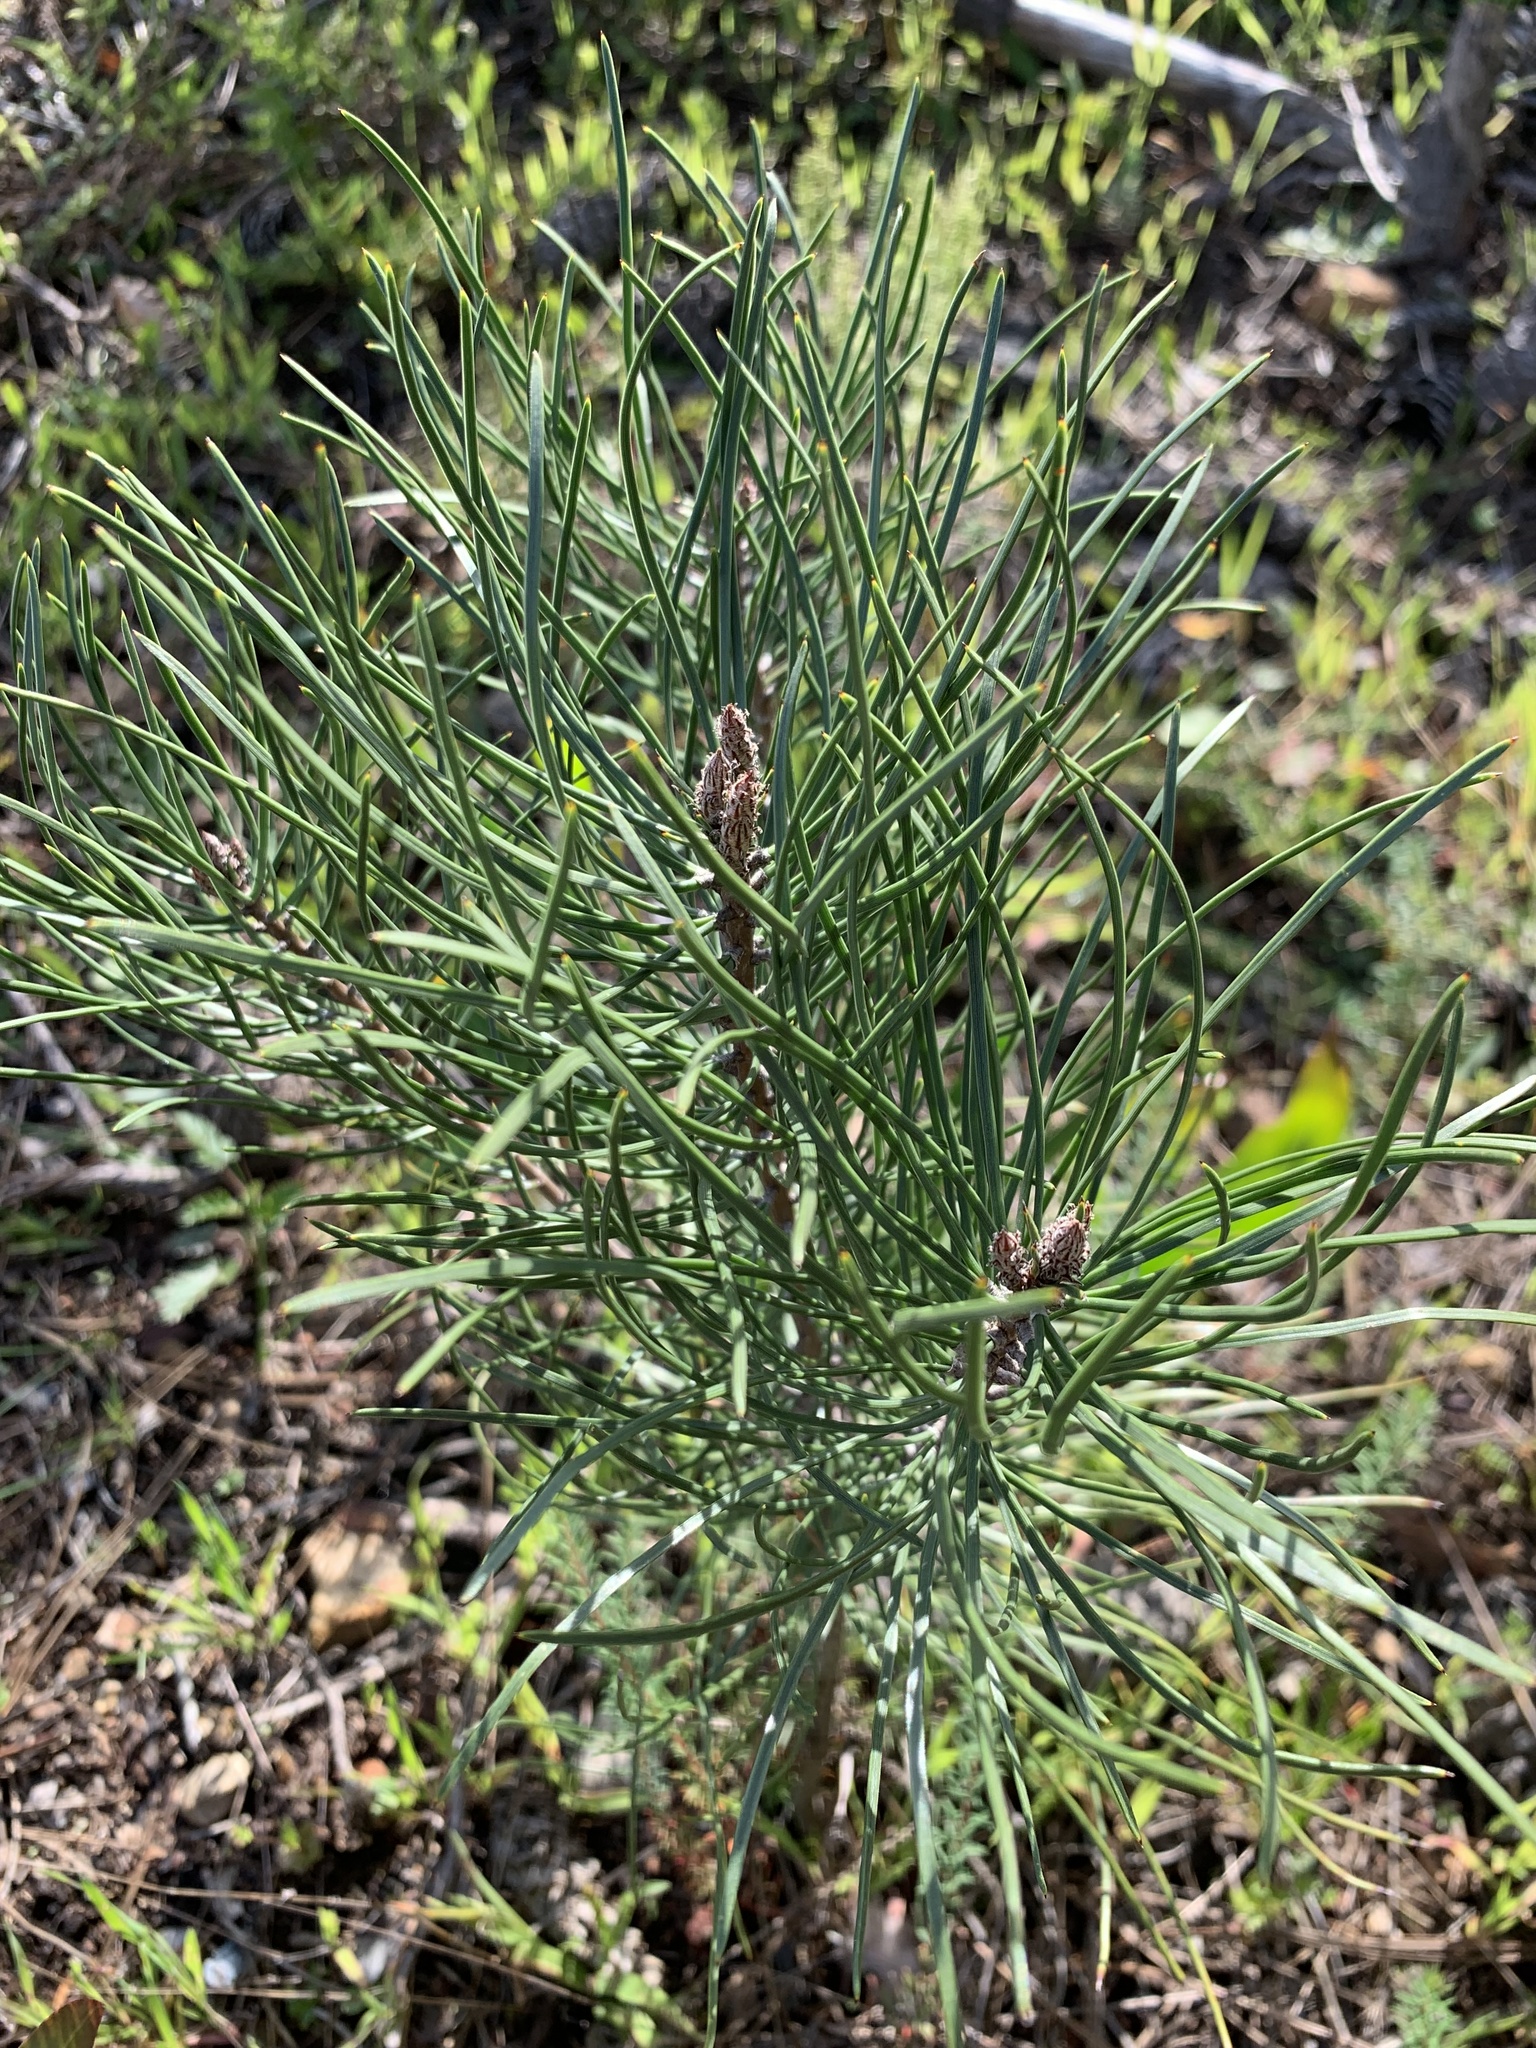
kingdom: Plantae
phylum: Tracheophyta
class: Pinopsida
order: Pinales
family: Pinaceae
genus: Pinus
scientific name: Pinus pinaster
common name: Maritime pine
